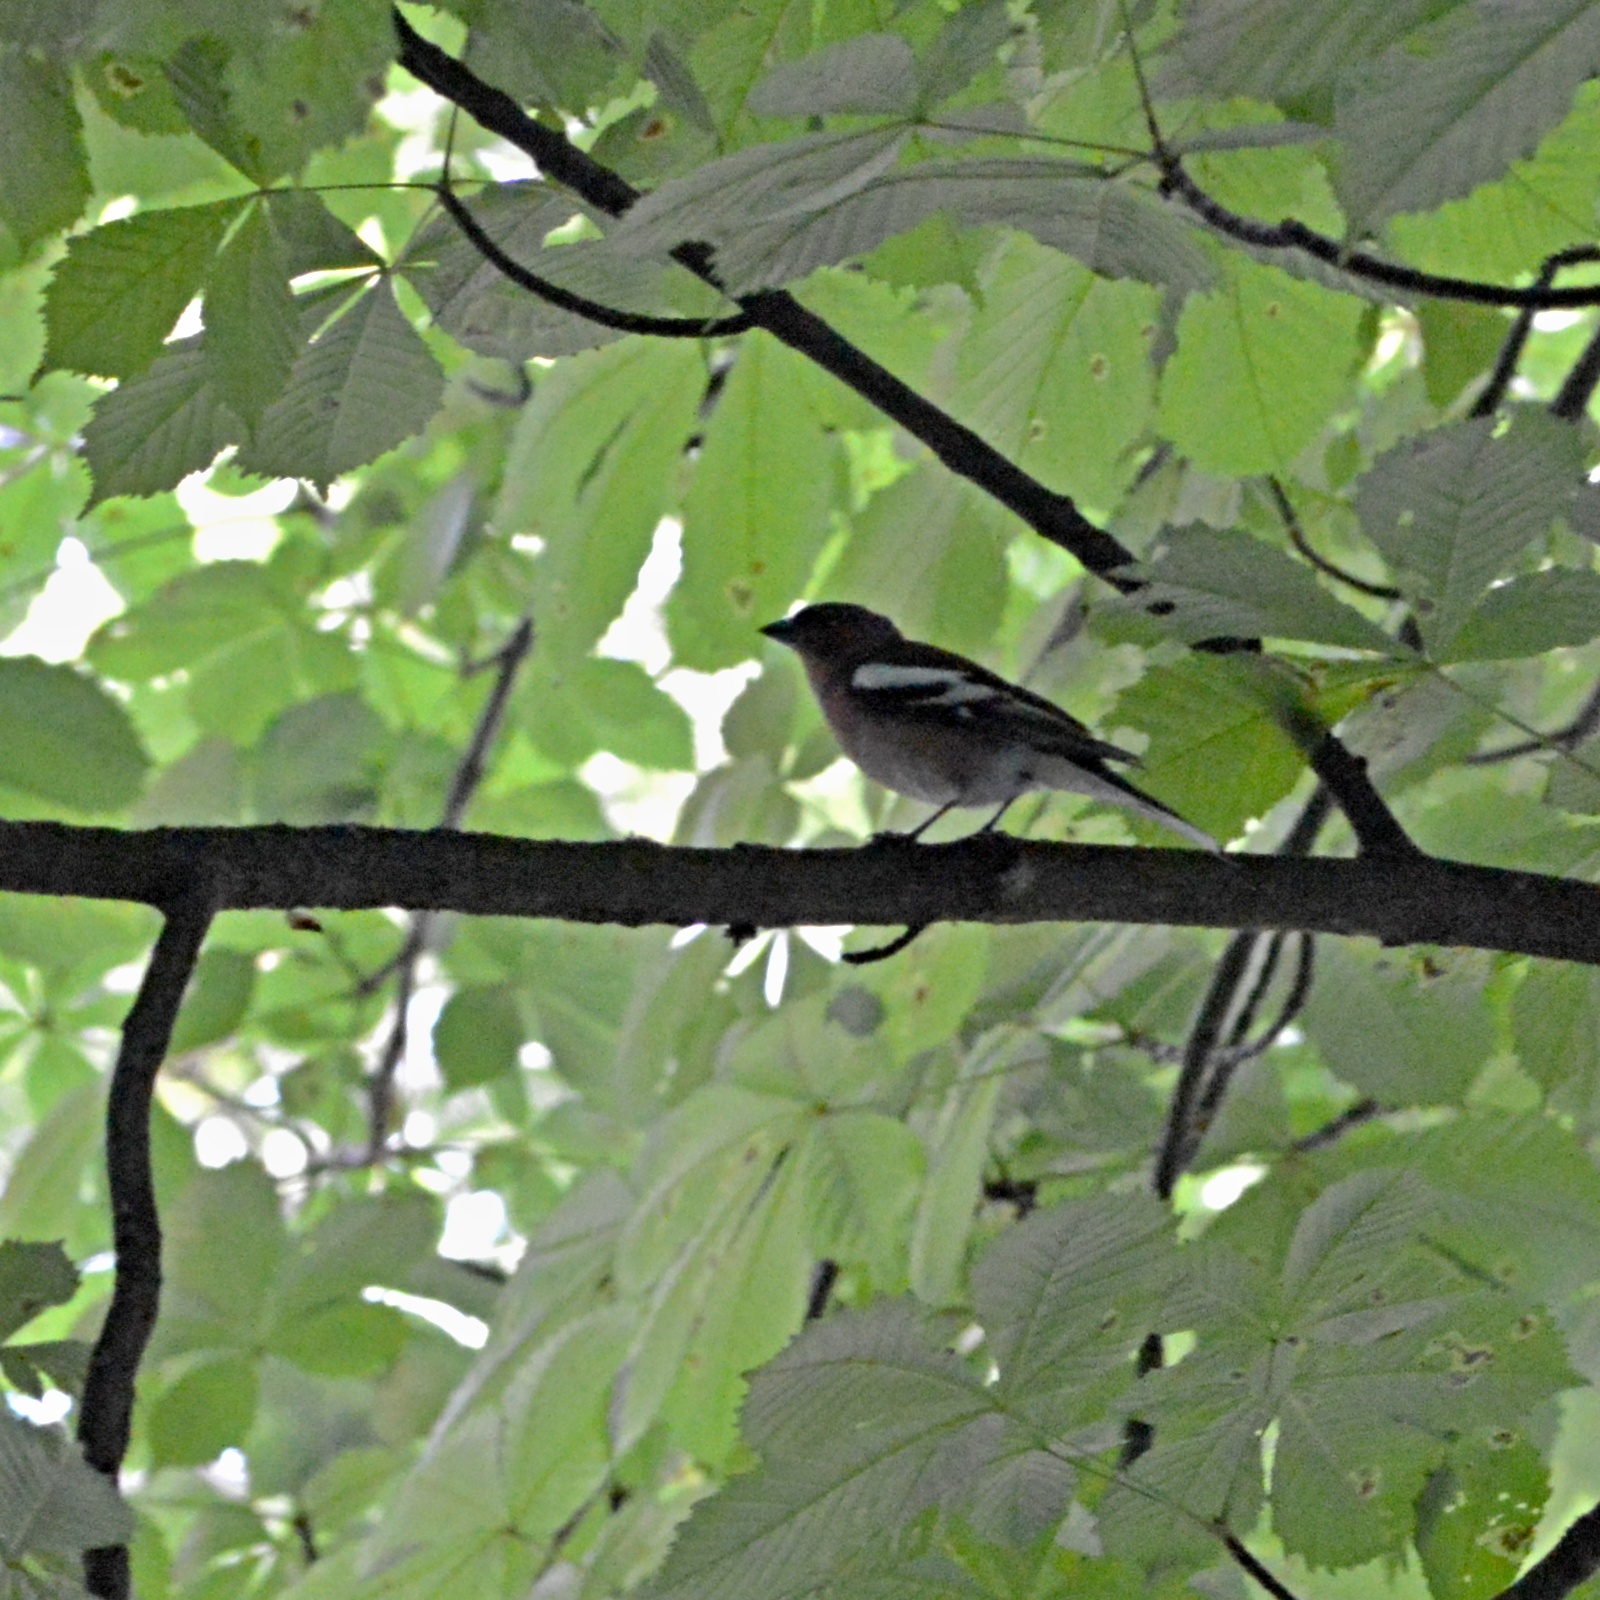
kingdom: Animalia
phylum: Chordata
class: Aves
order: Passeriformes
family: Fringillidae
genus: Fringilla
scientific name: Fringilla coelebs
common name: Common chaffinch
